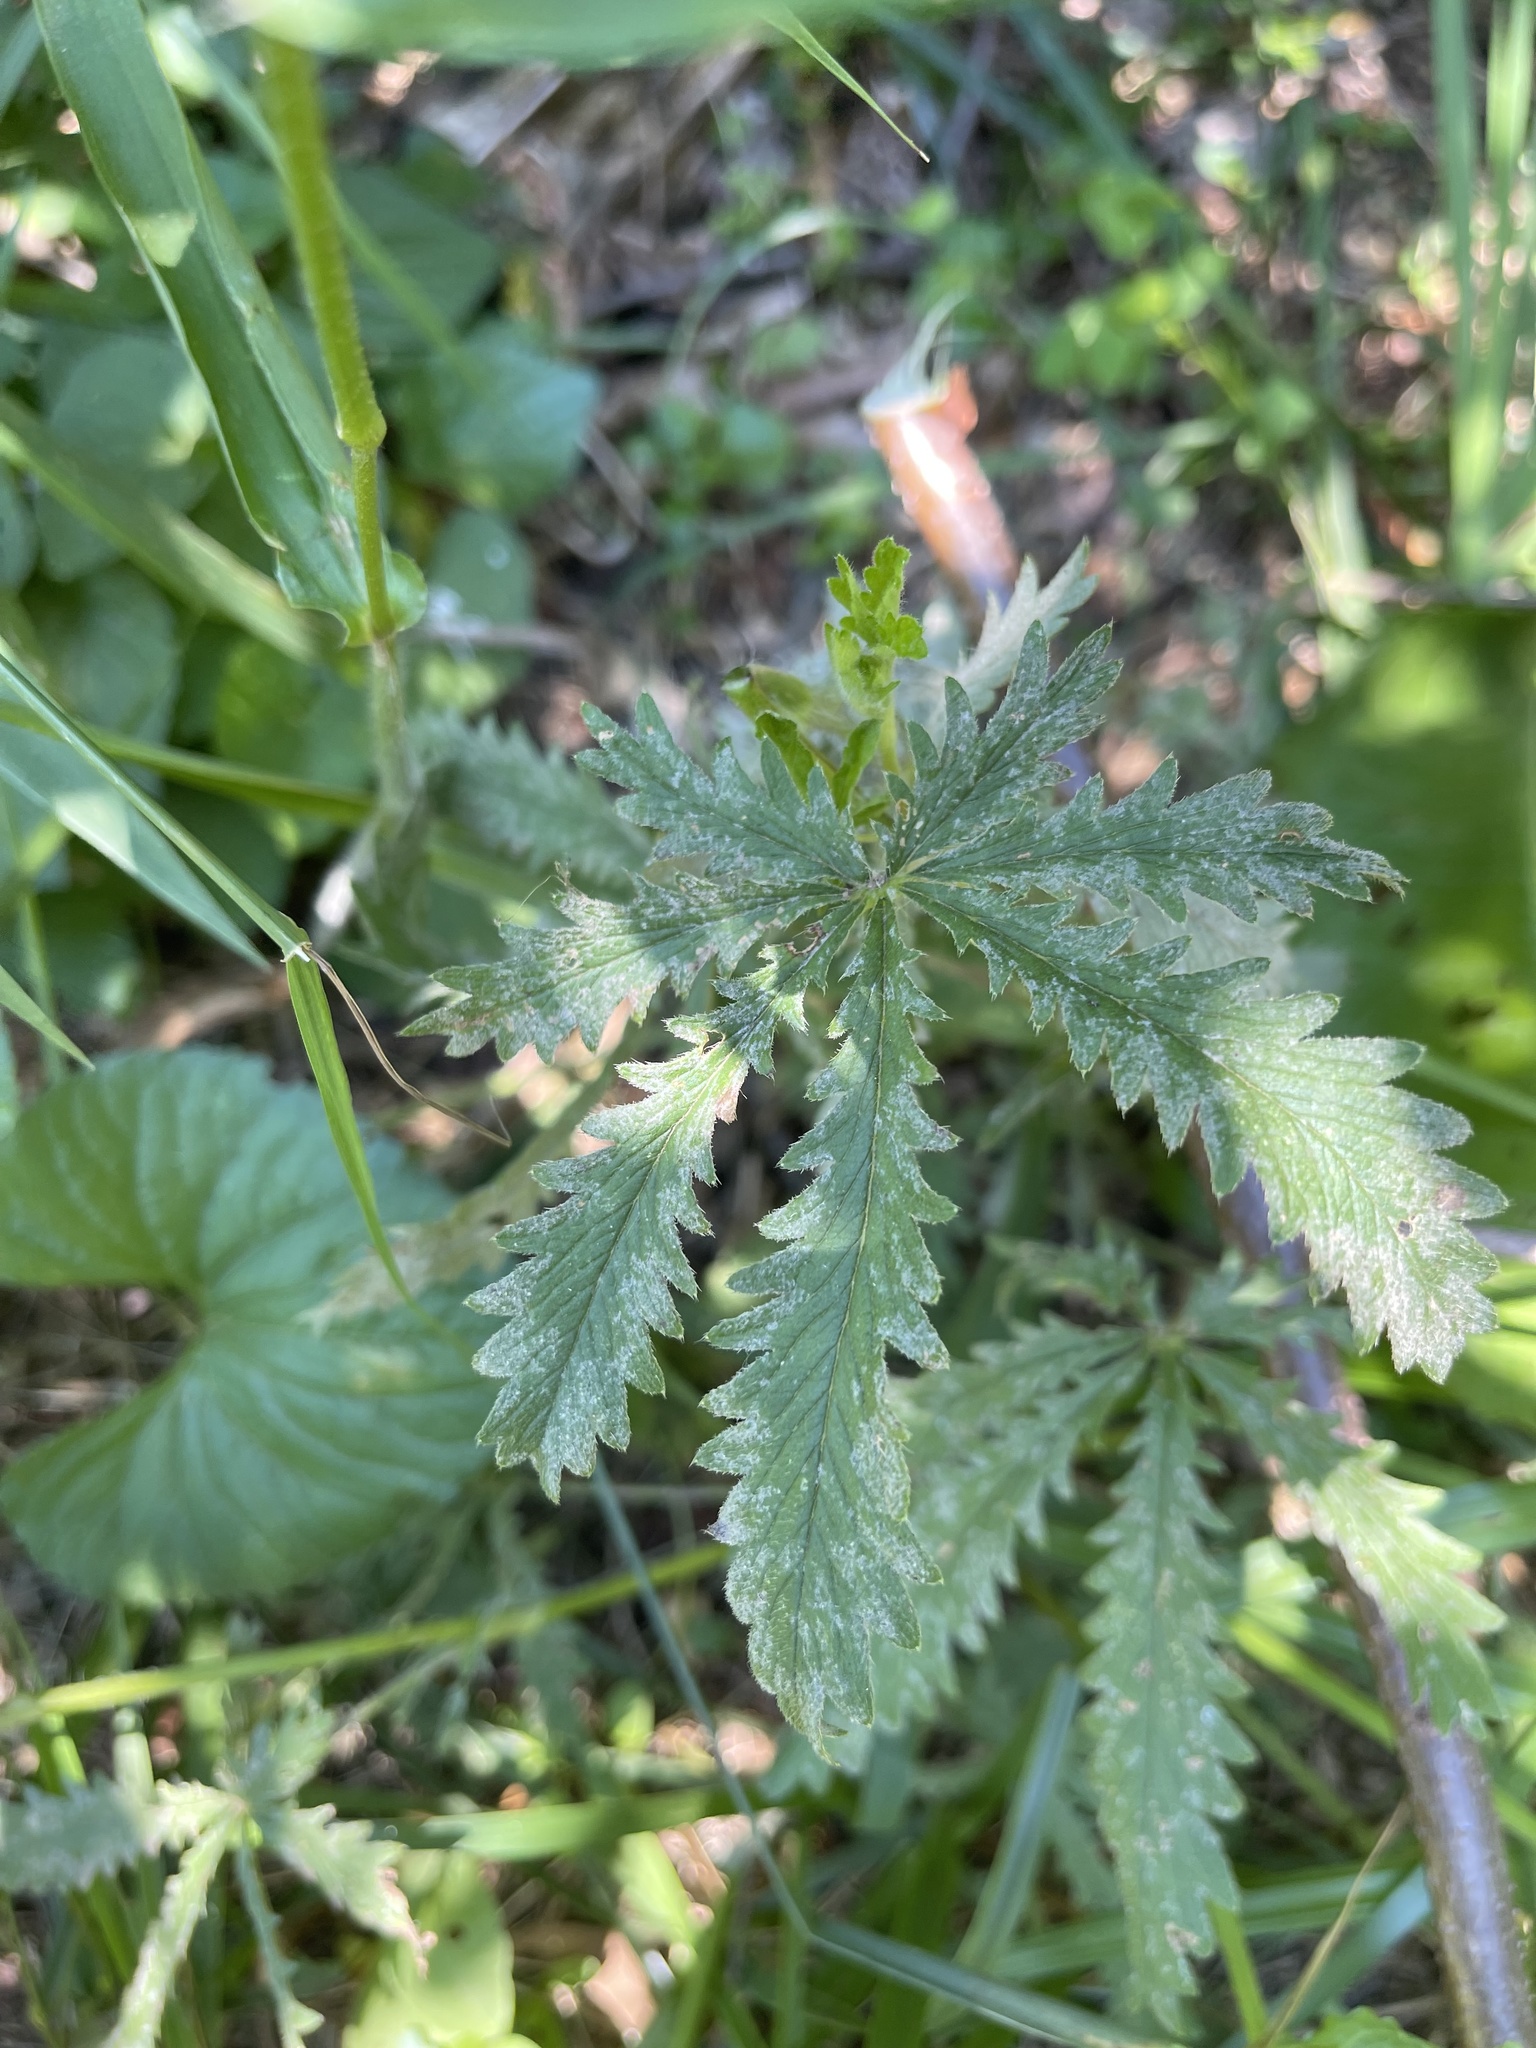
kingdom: Plantae
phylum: Tracheophyta
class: Magnoliopsida
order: Rosales
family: Rosaceae
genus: Potentilla
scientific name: Potentilla recta
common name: Sulphur cinquefoil
